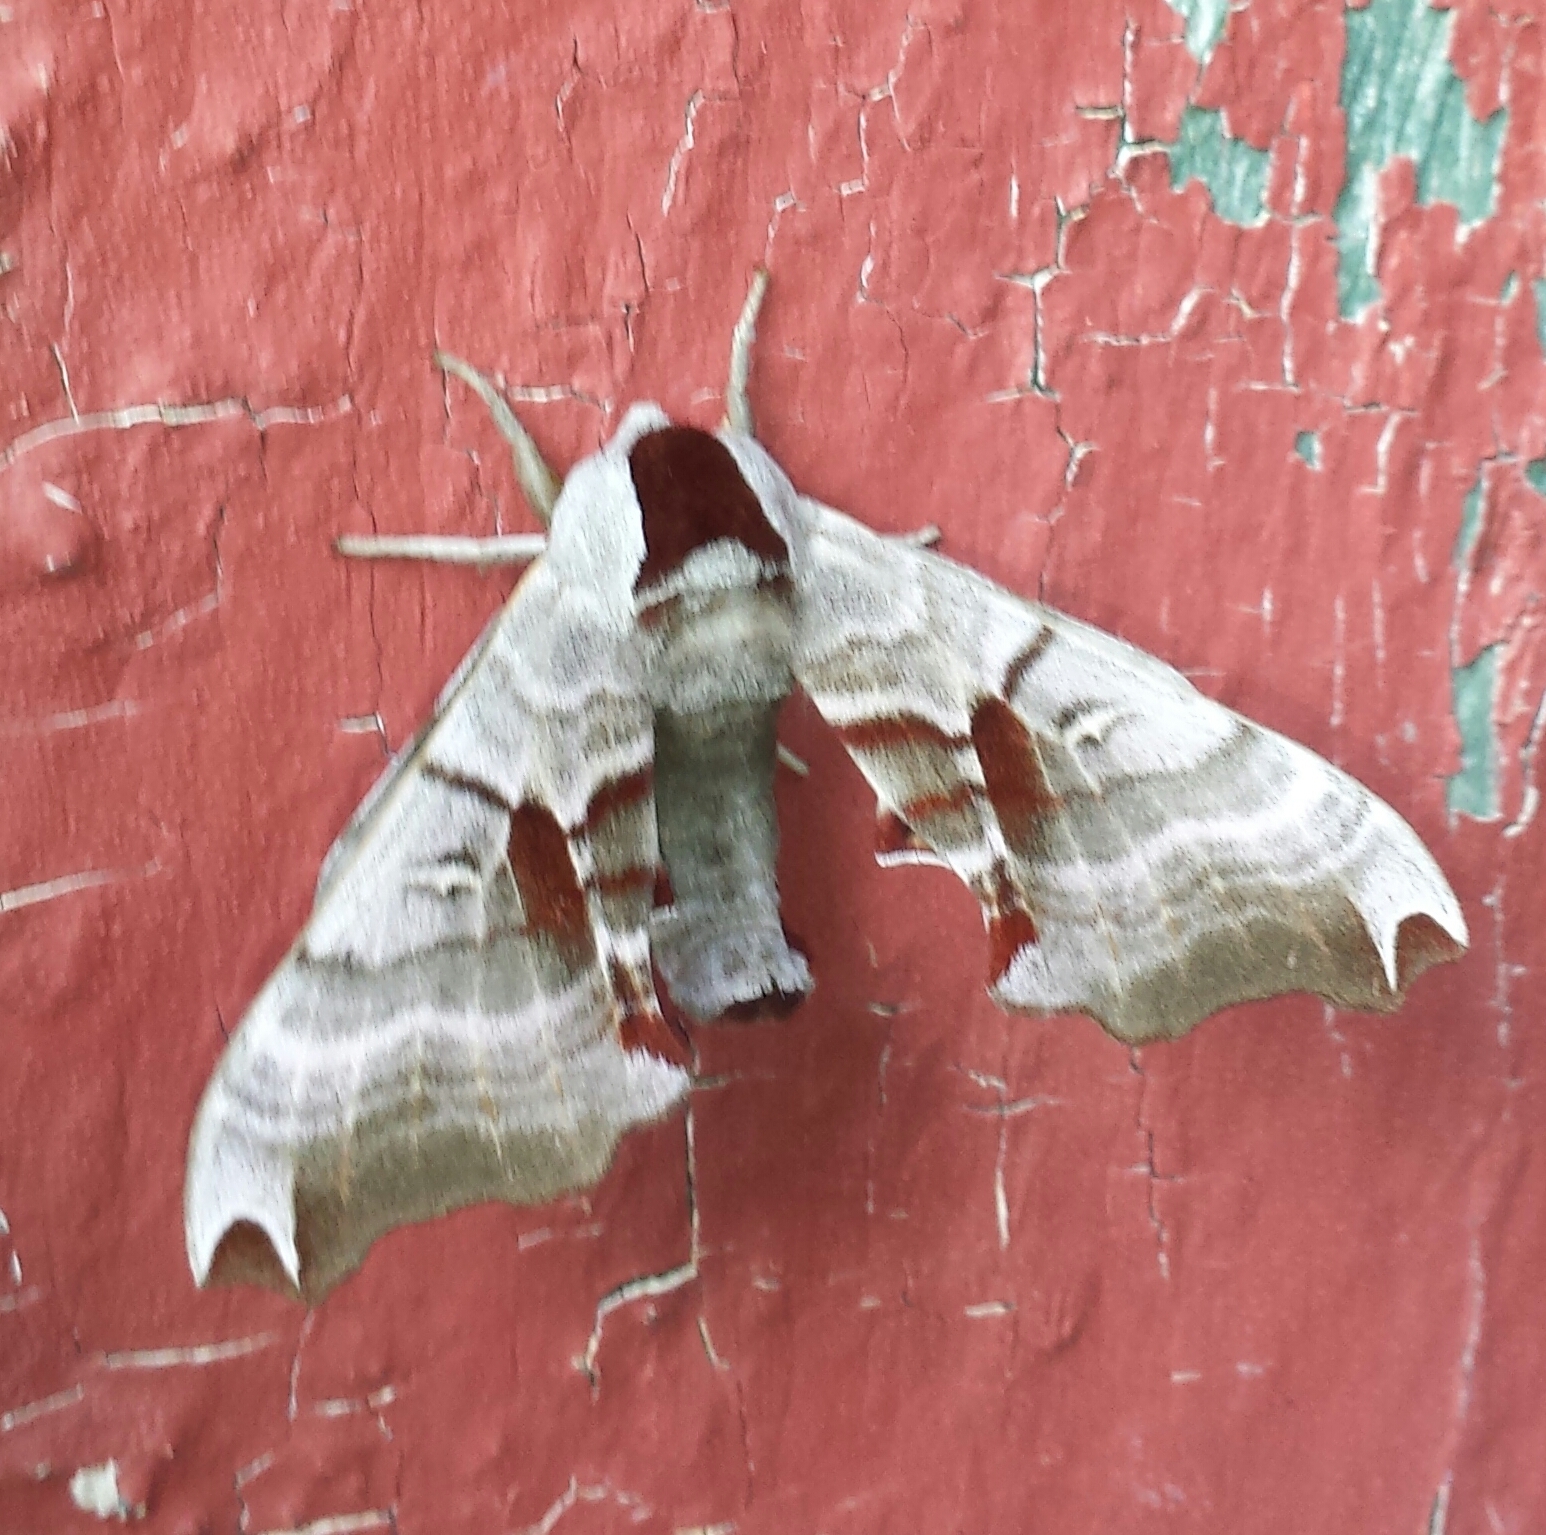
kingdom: Animalia
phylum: Arthropoda
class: Insecta
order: Lepidoptera
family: Sphingidae
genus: Smerinthus
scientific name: Smerinthus jamaicensis
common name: Twin spotted sphinx
